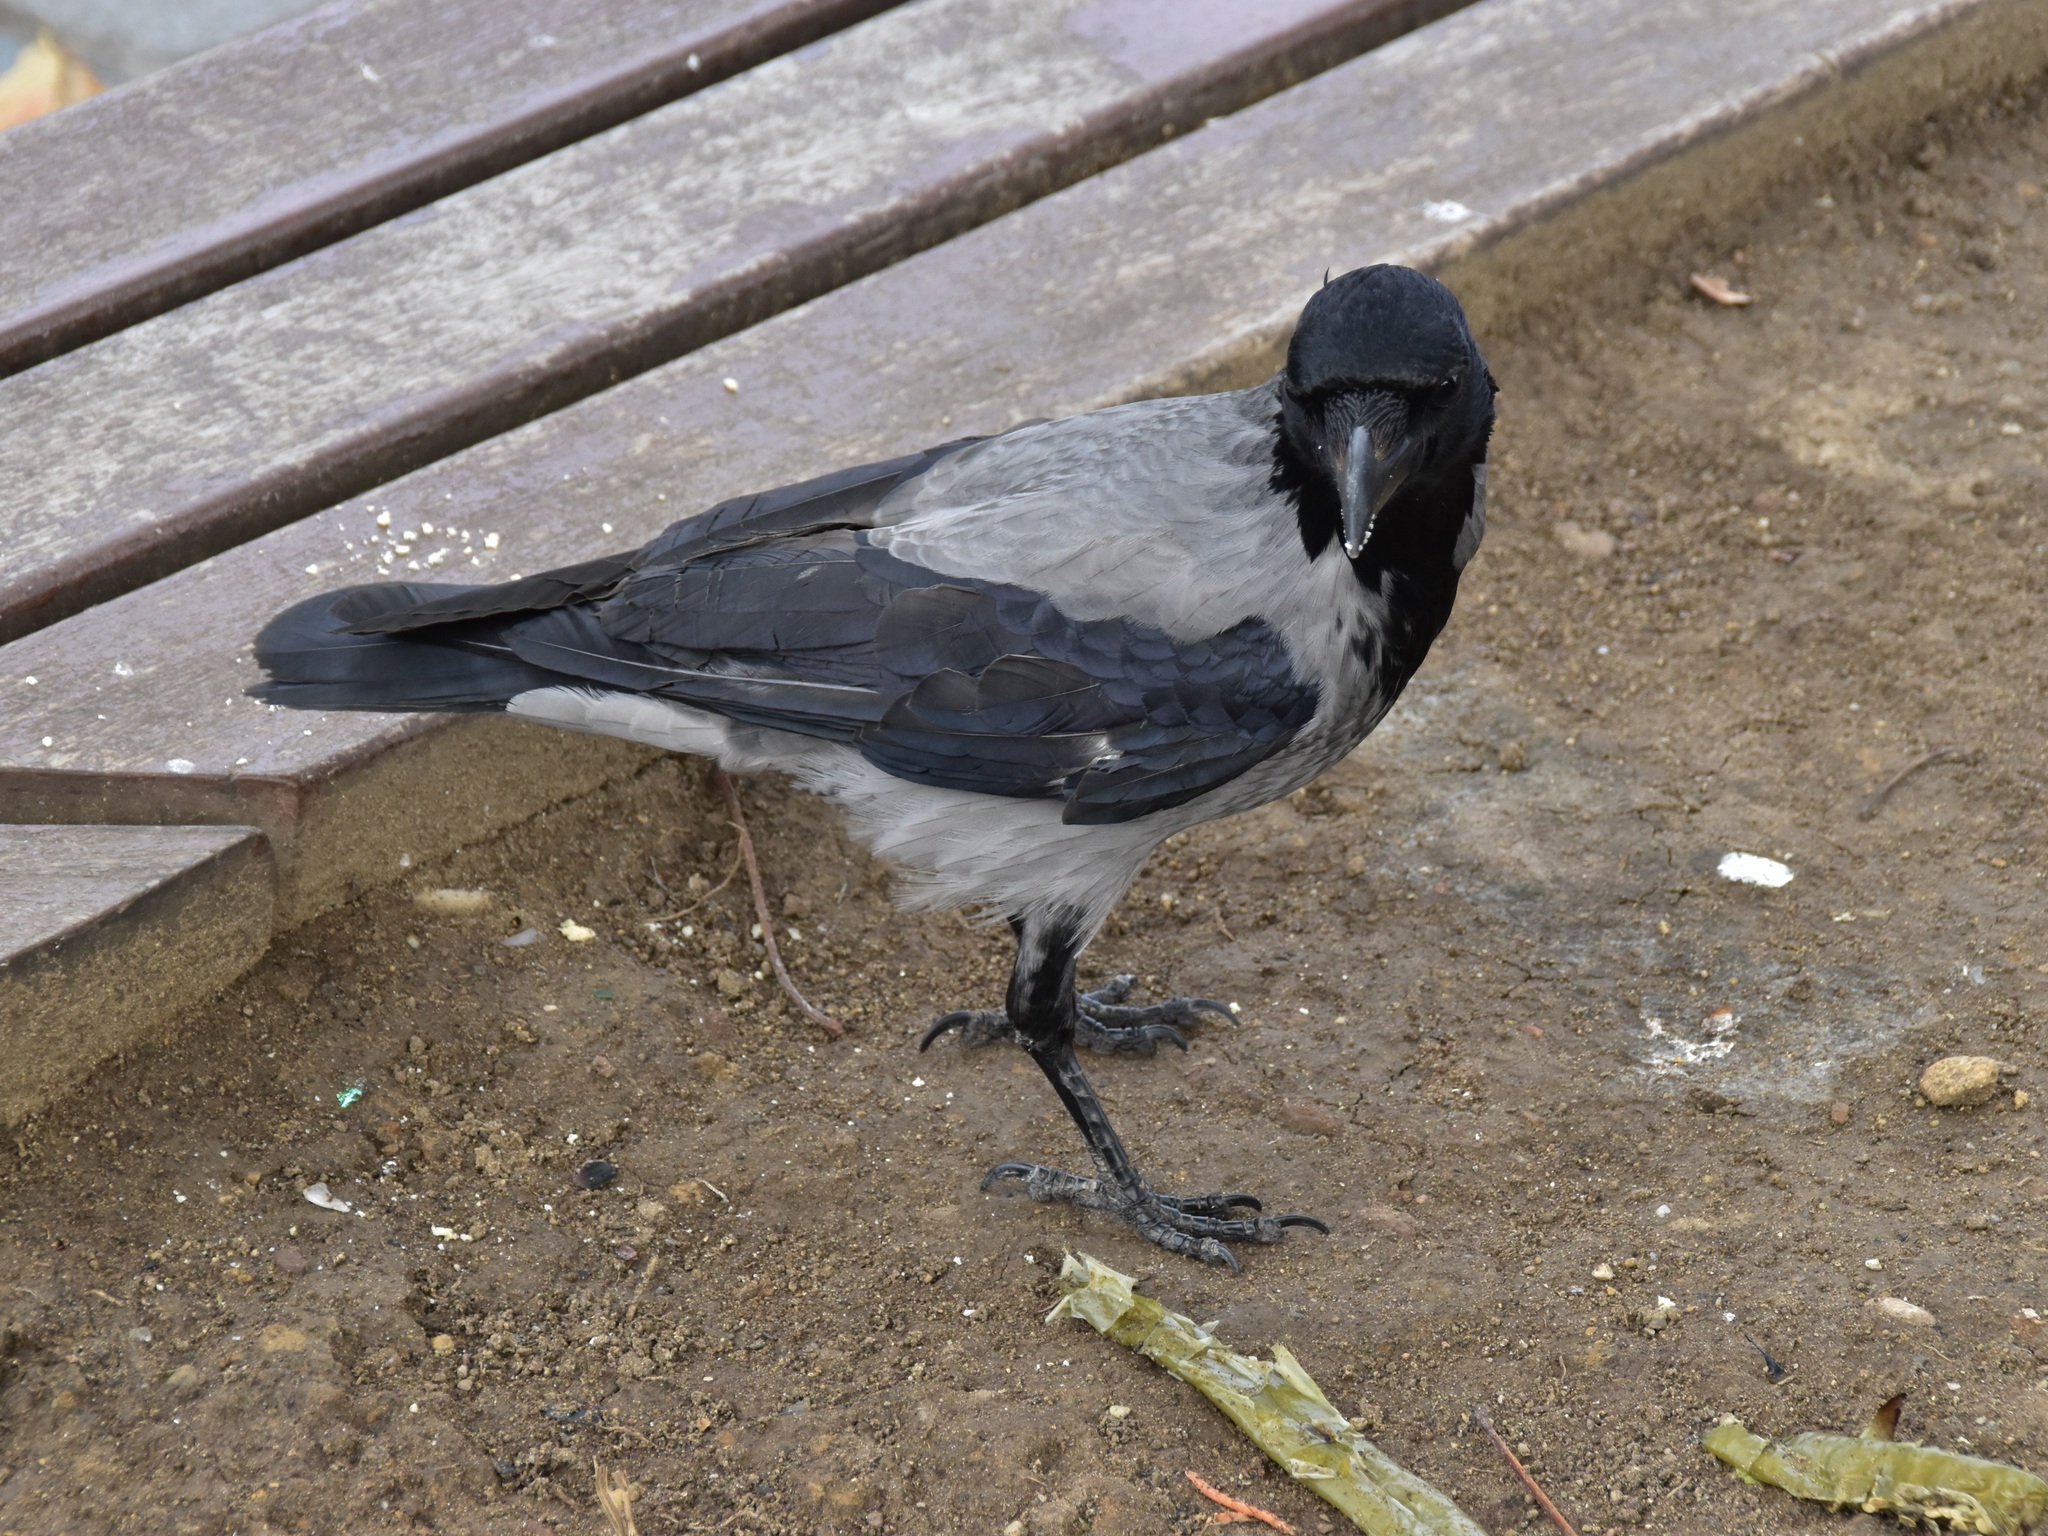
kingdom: Animalia
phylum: Chordata
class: Aves
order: Passeriformes
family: Corvidae
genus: Corvus
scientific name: Corvus cornix
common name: Hooded crow
